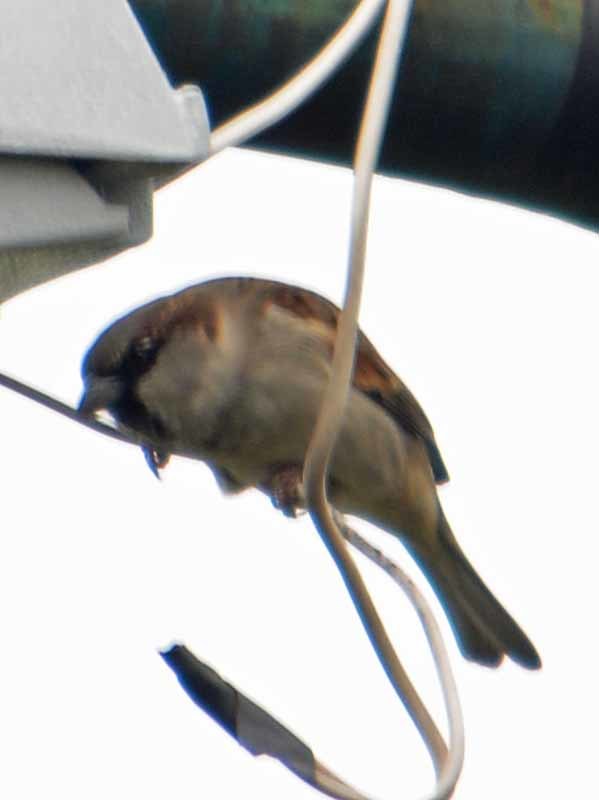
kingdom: Animalia
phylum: Chordata
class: Aves
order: Passeriformes
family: Passeridae
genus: Passer
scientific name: Passer domesticus
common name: House sparrow
